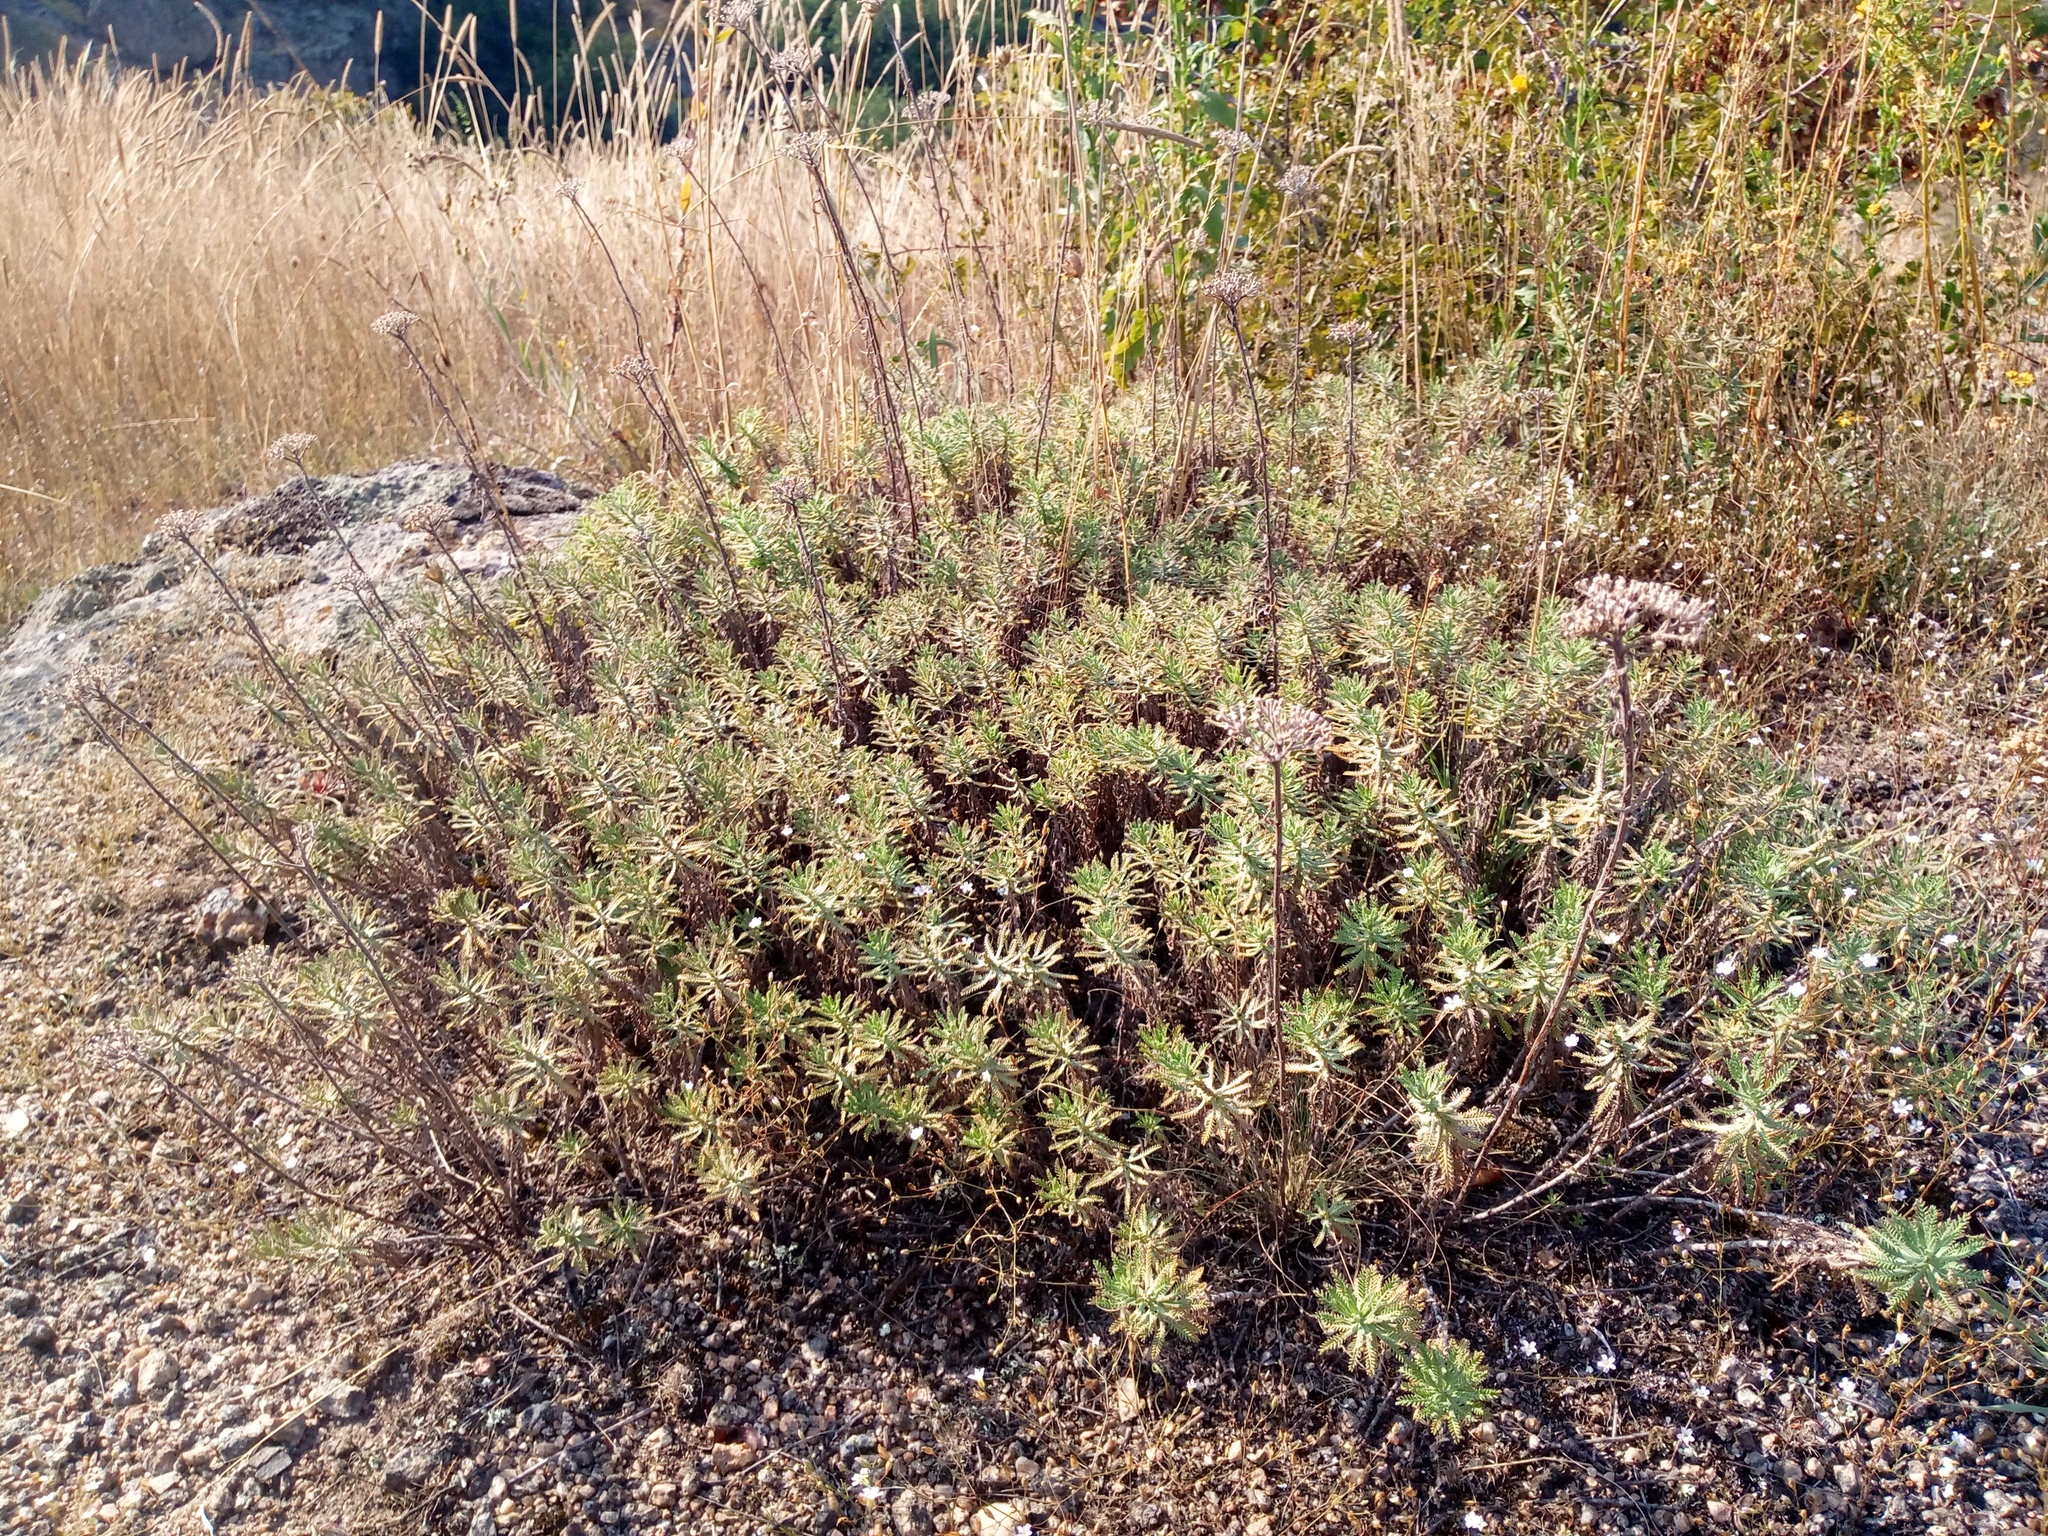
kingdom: Plantae
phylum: Tracheophyta
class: Magnoliopsida
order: Asterales
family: Asteraceae
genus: Achillea
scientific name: Achillea ochroleuca
